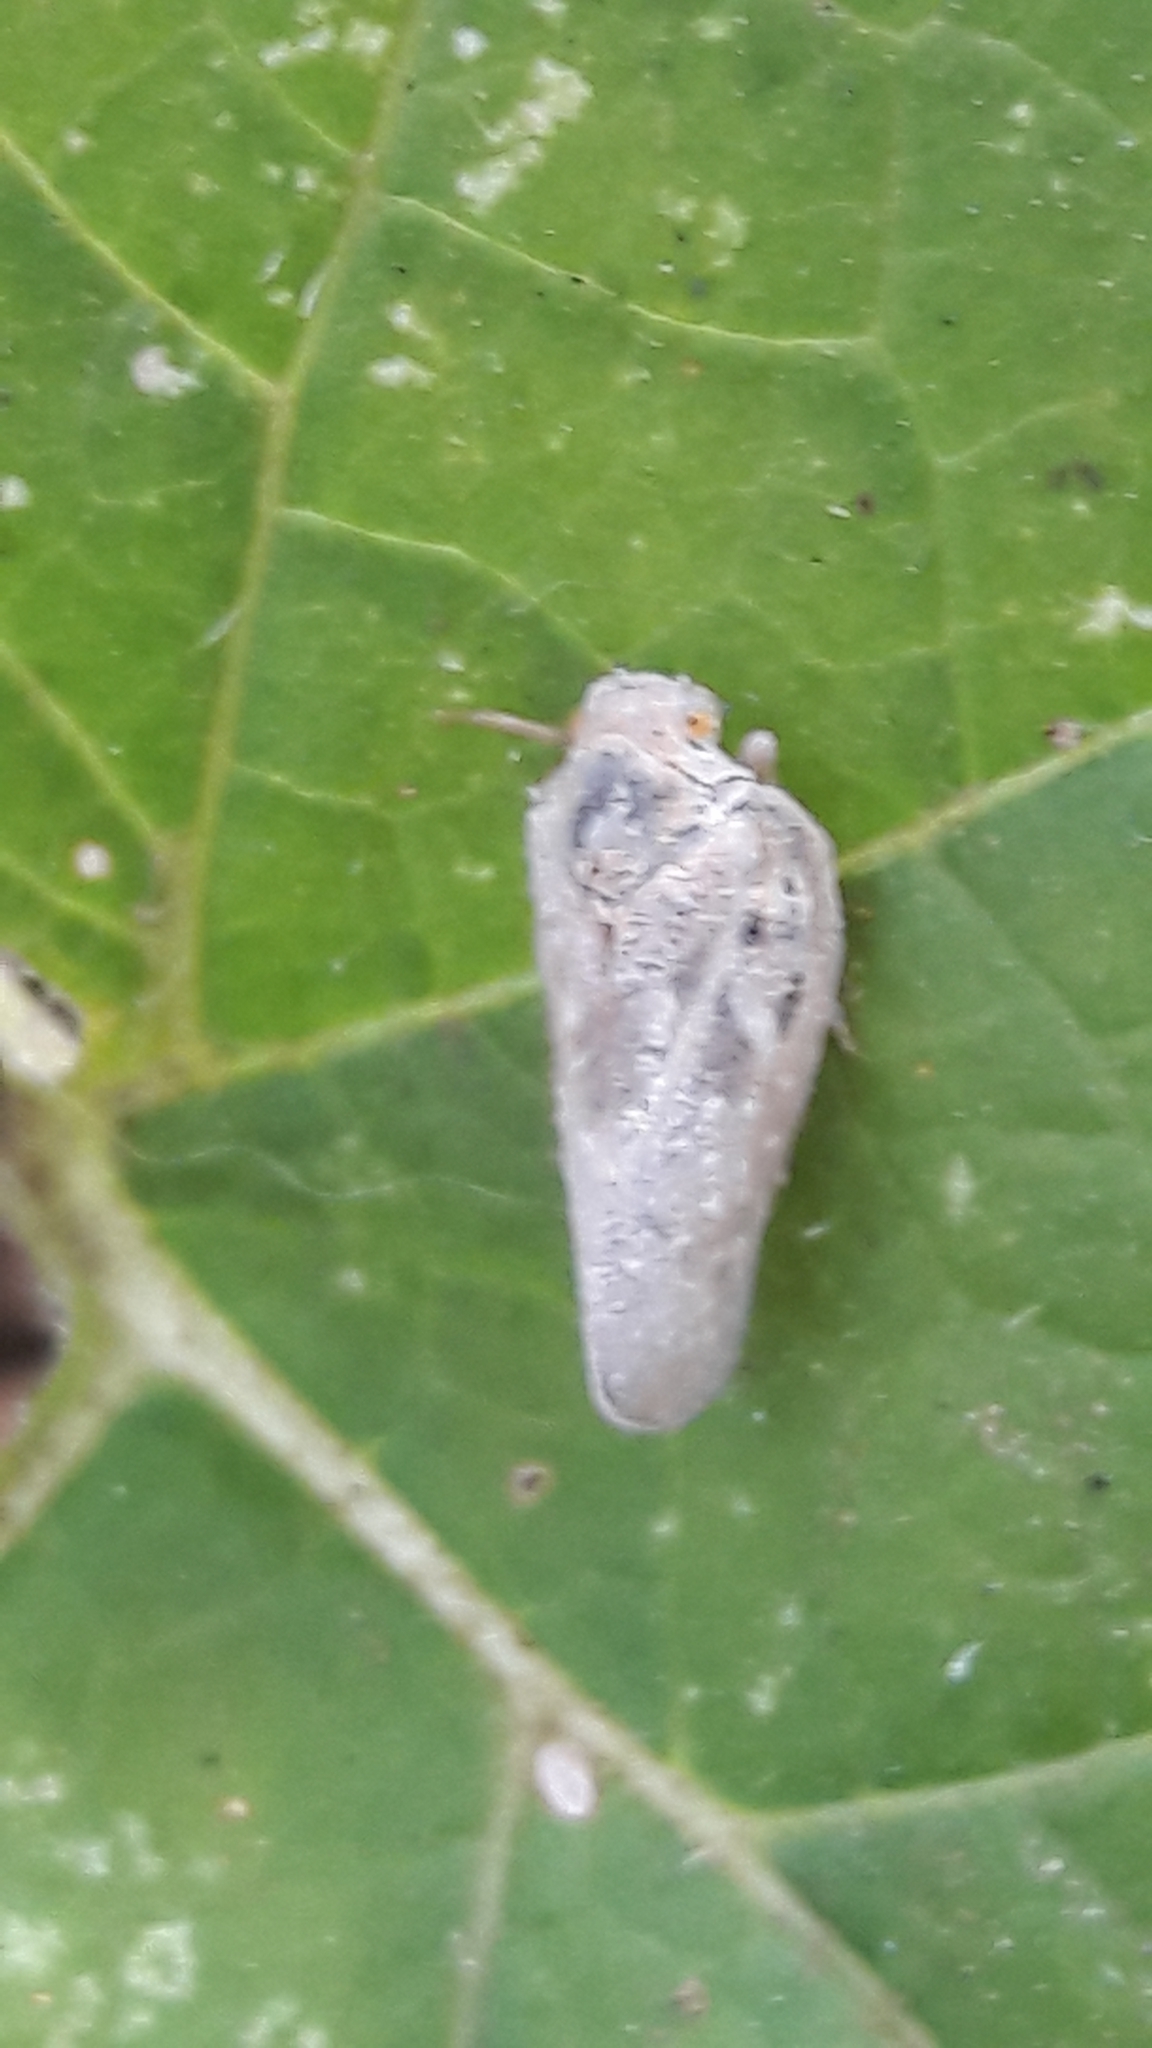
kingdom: Animalia
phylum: Arthropoda
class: Insecta
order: Hemiptera
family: Flatidae
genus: Metcalfa
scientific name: Metcalfa pruinosa
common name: Citrus flatid planthopper
